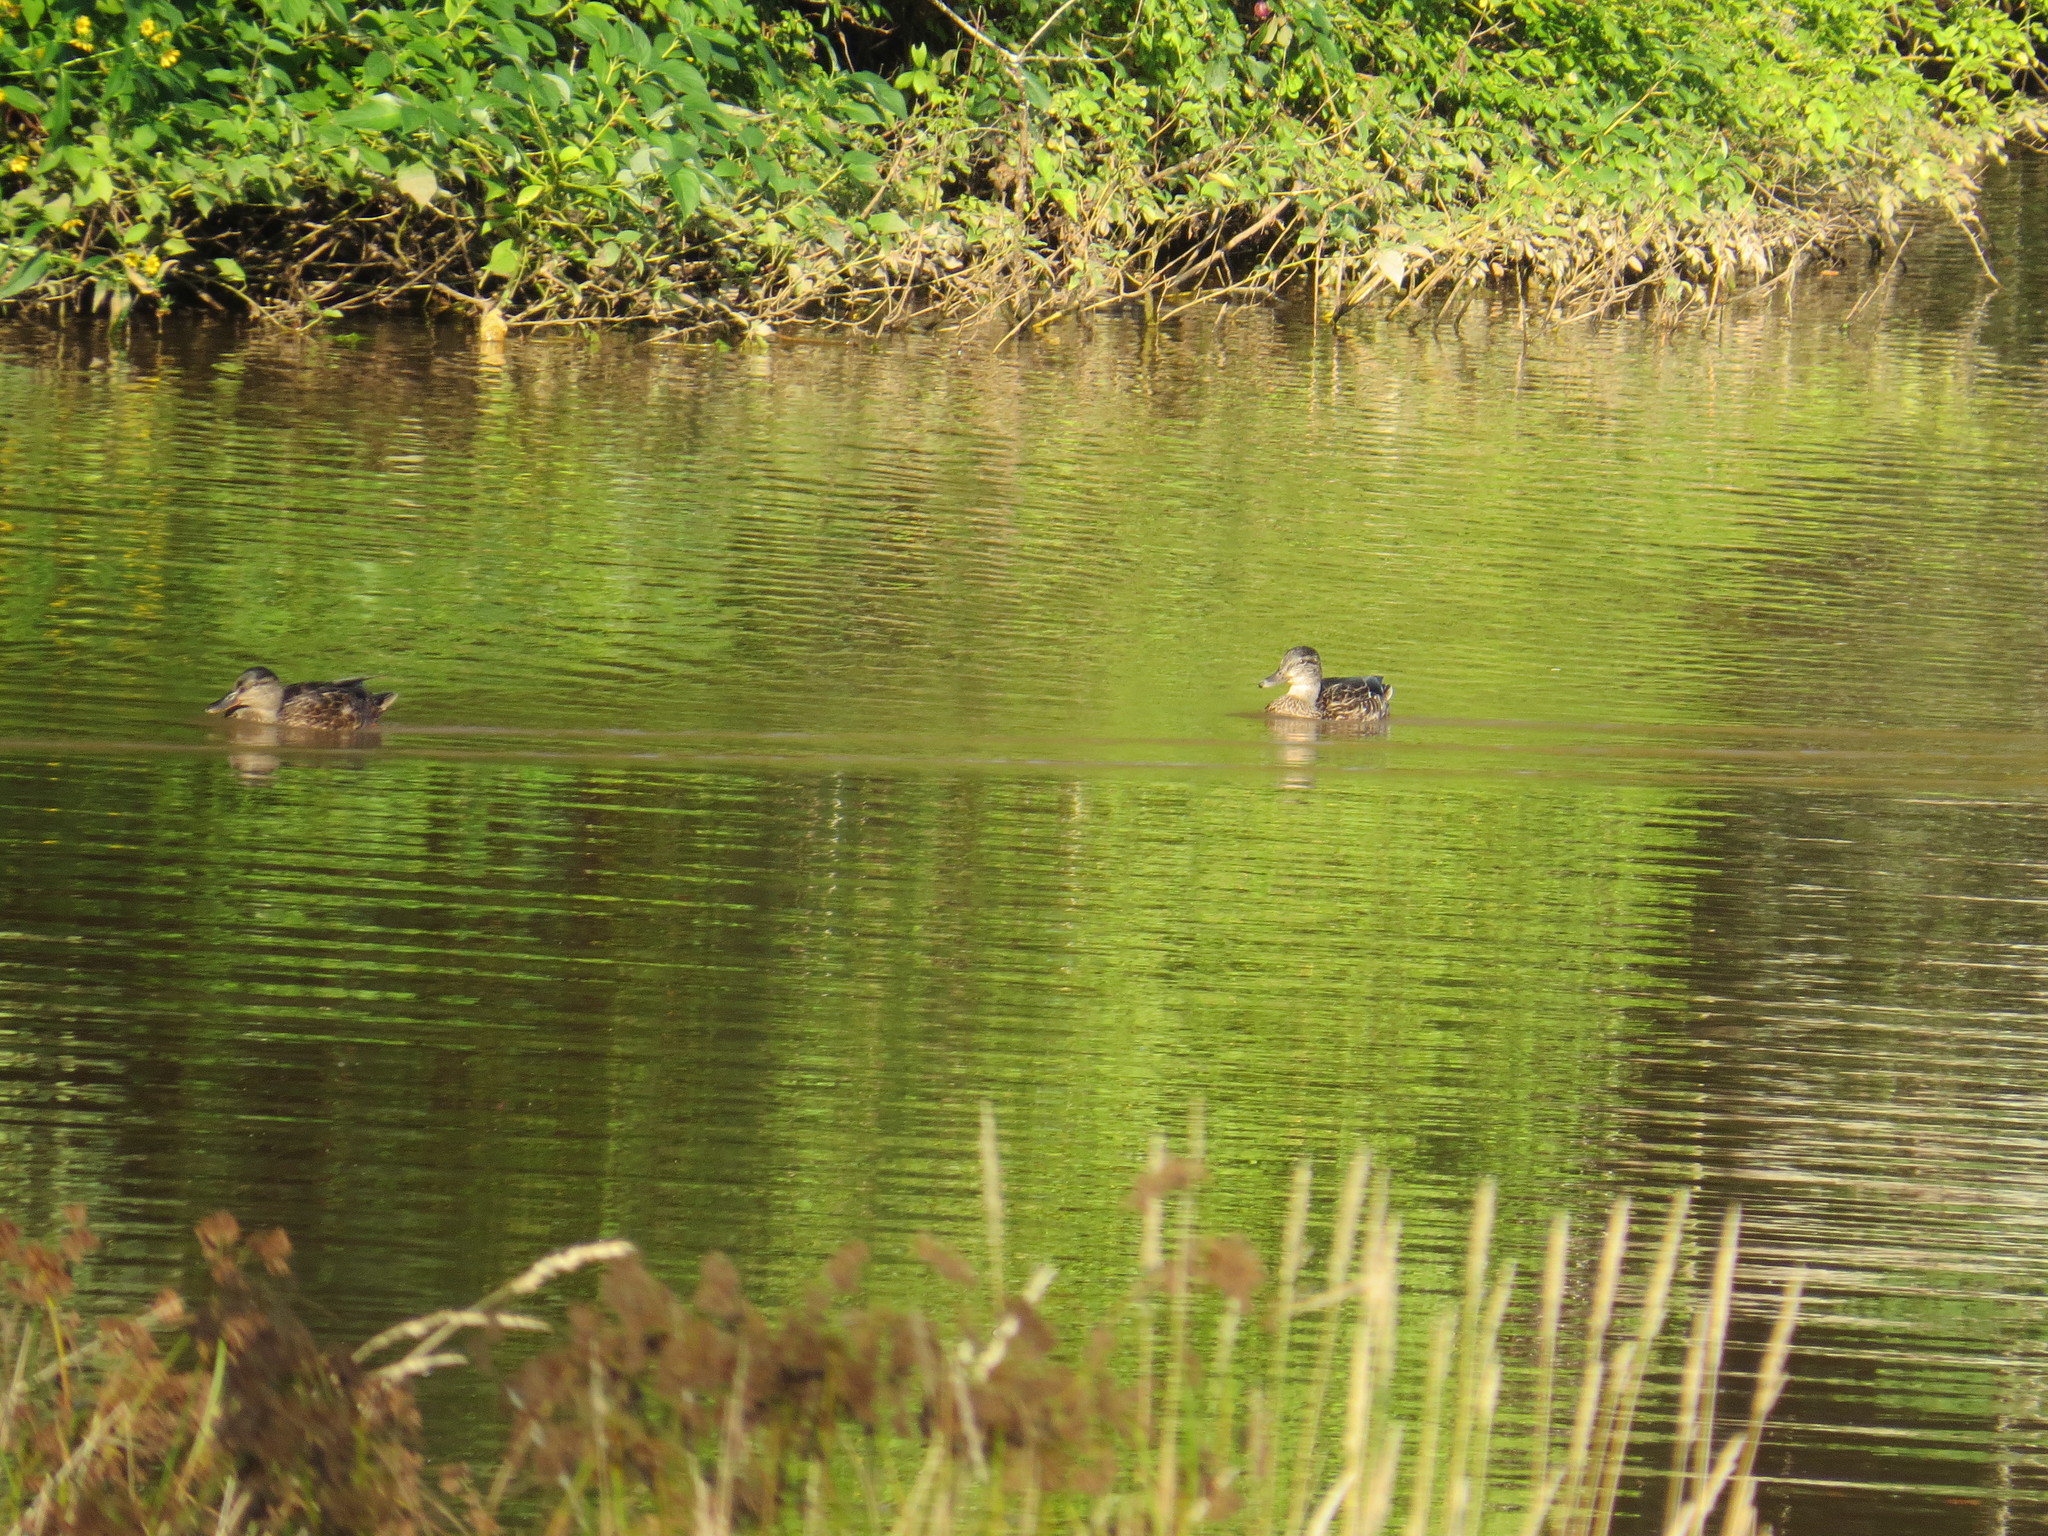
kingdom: Animalia
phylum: Chordata
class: Aves
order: Anseriformes
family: Anatidae
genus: Anas
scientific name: Anas platyrhynchos
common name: Mallard
